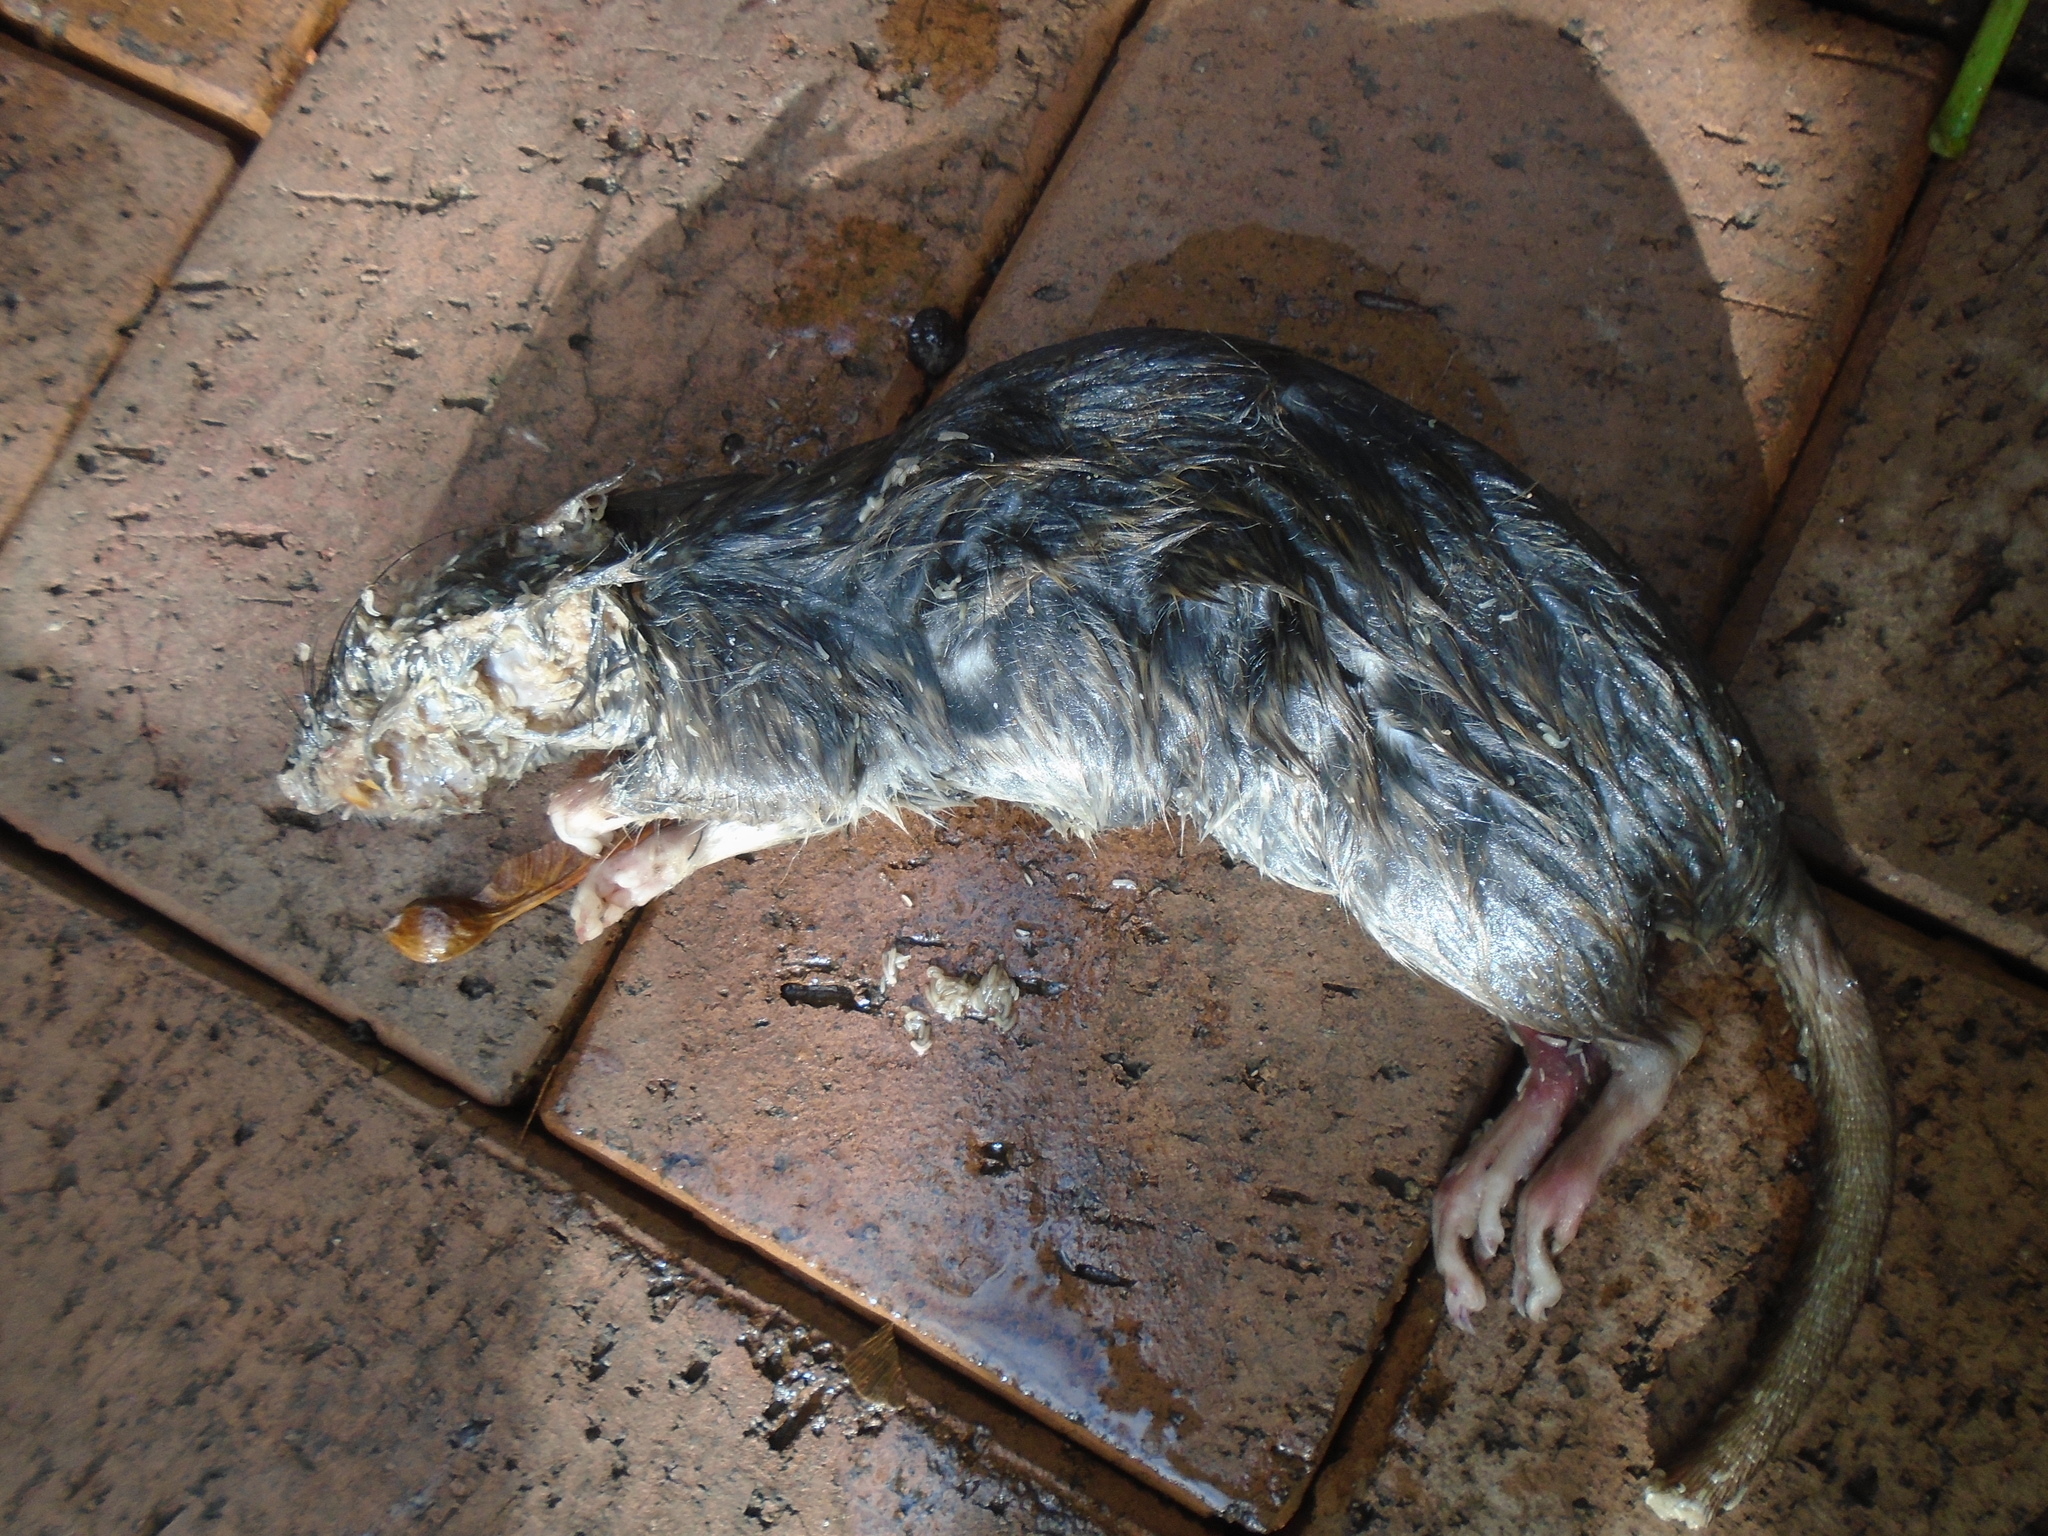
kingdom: Animalia
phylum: Chordata
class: Mammalia
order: Rodentia
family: Muridae
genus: Rattus
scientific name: Rattus norvegicus
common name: Brown rat
